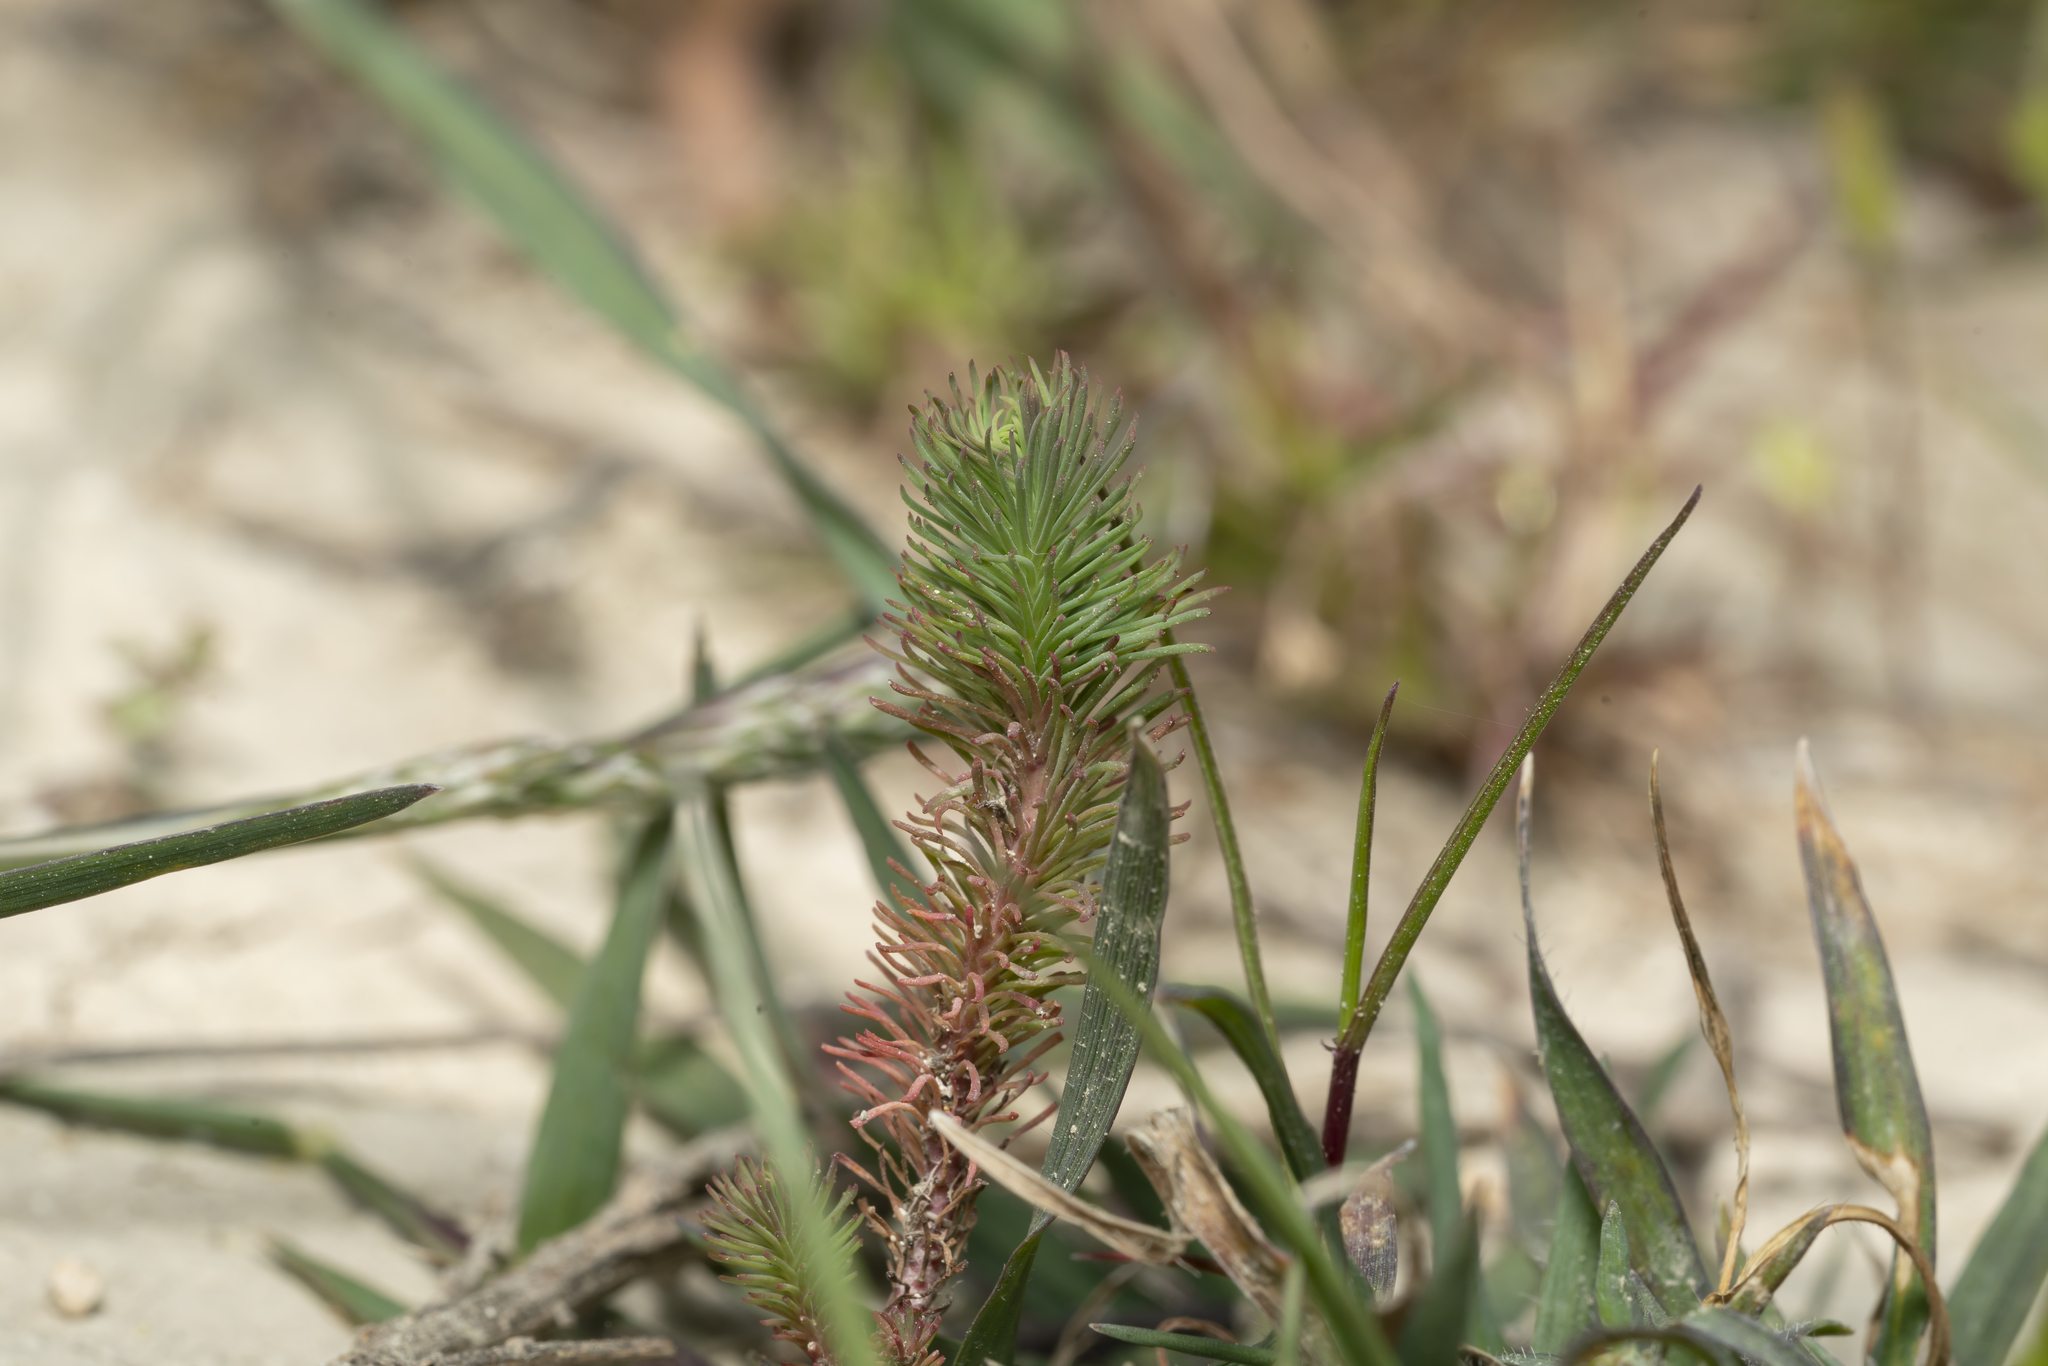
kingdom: Plantae
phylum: Tracheophyta
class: Magnoliopsida
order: Malpighiales
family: Euphorbiaceae
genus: Euphorbia
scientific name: Euphorbia aleppica
